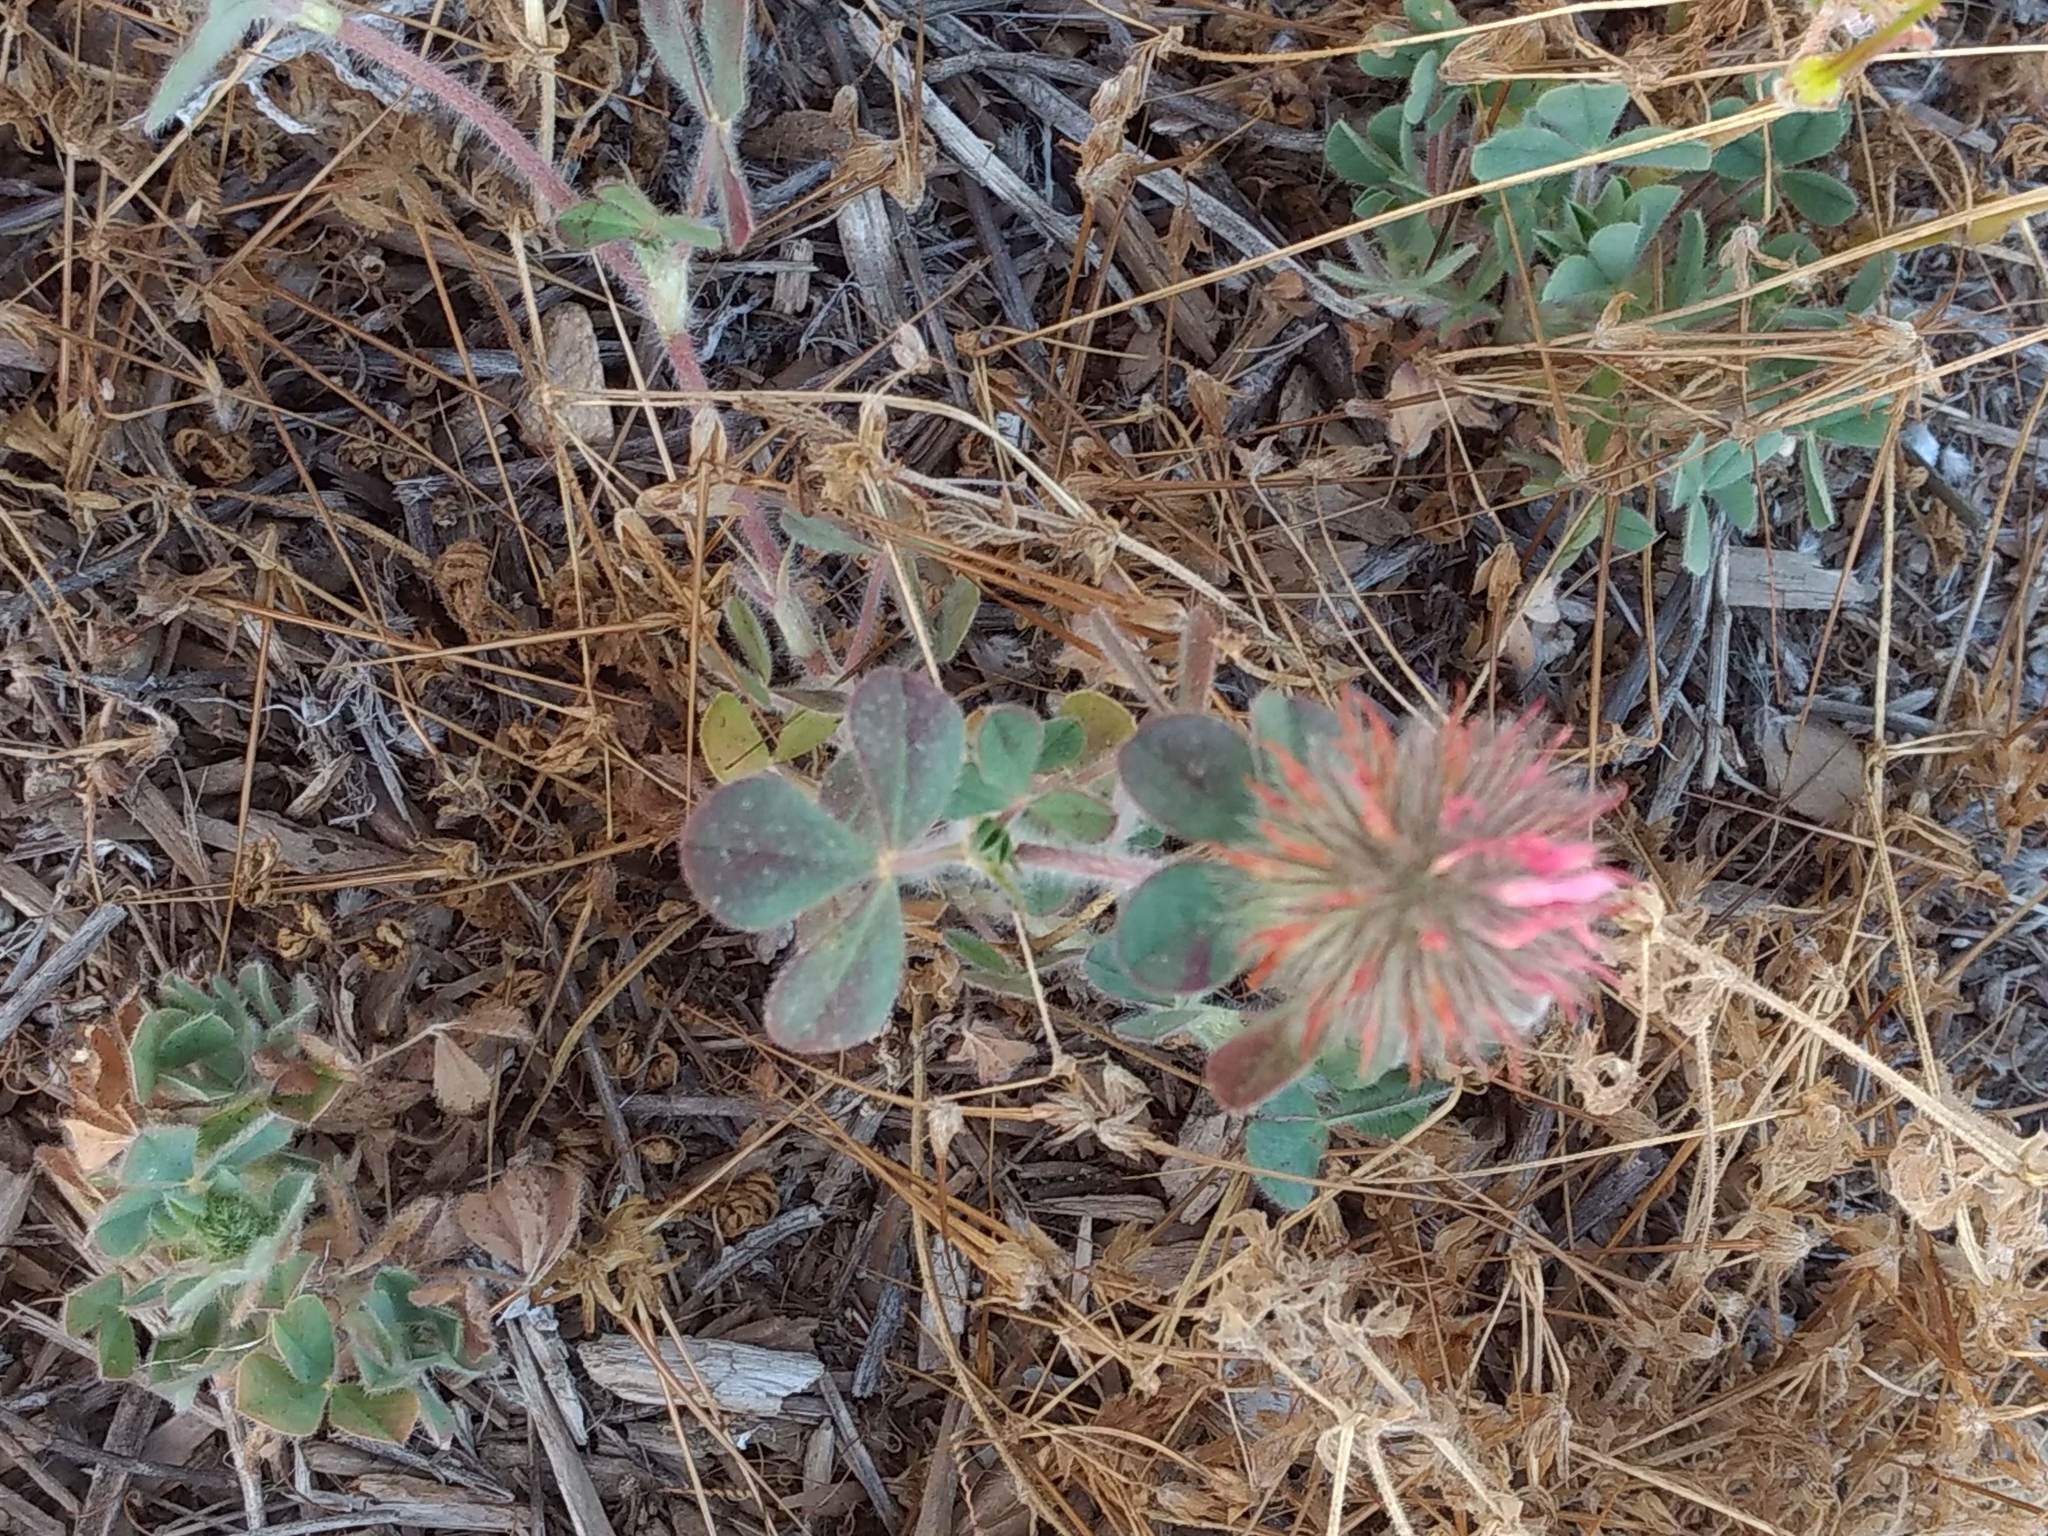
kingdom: Plantae
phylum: Tracheophyta
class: Magnoliopsida
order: Fabales
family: Fabaceae
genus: Trifolium
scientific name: Trifolium hirtum
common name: Rose clover
